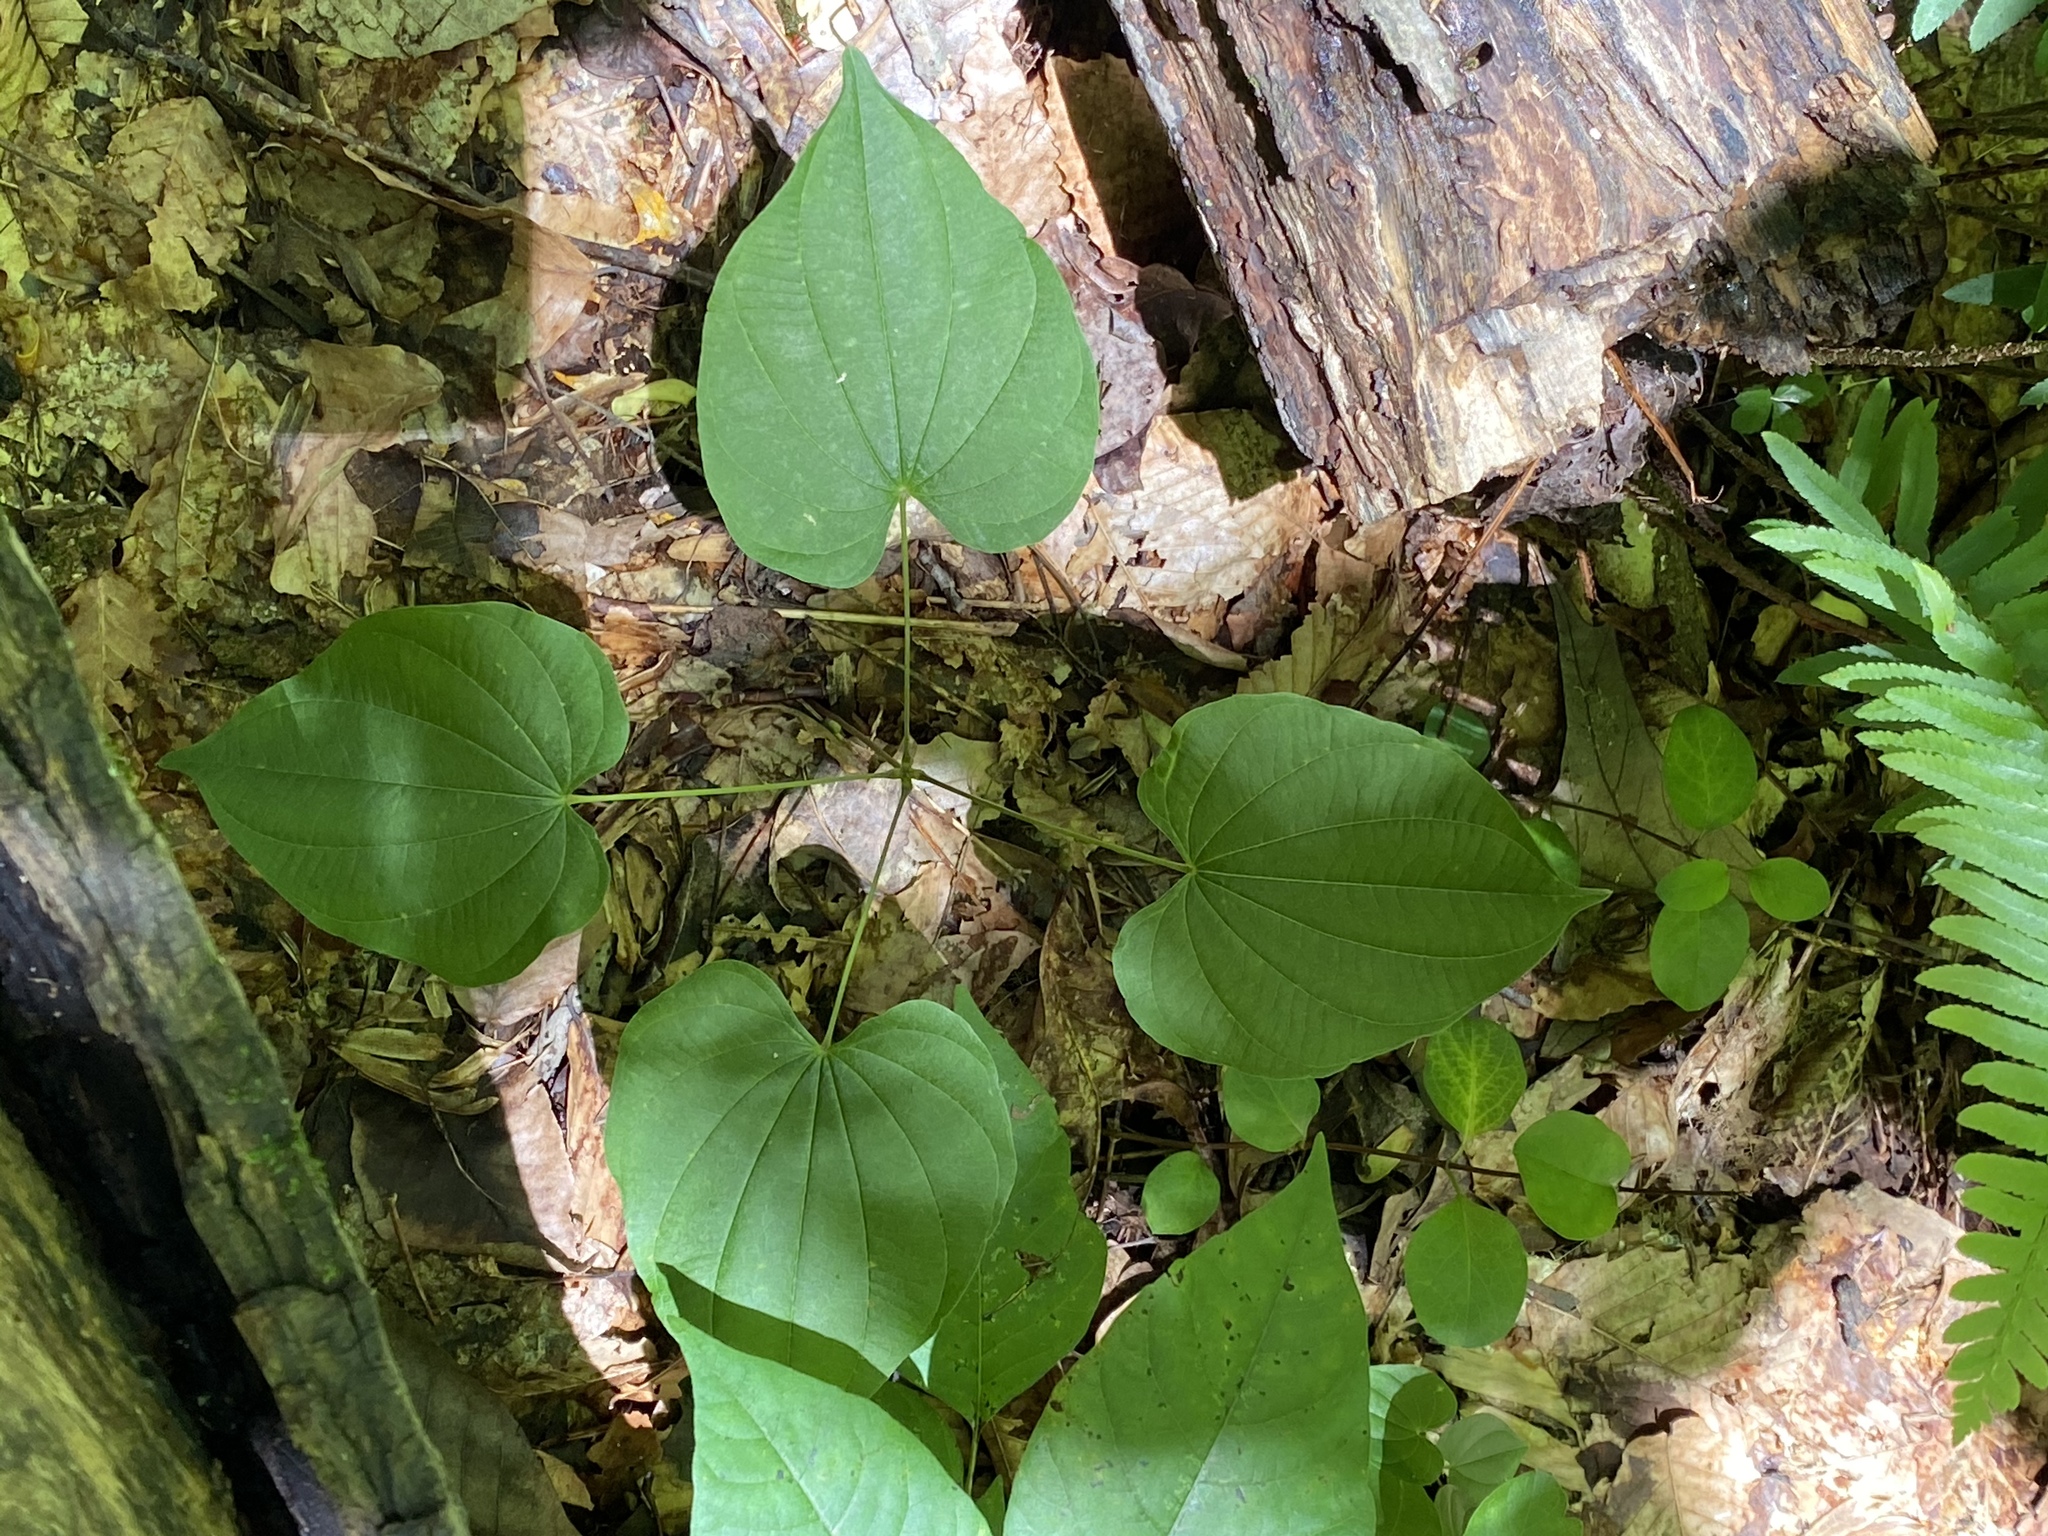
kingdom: Plantae
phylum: Tracheophyta
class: Liliopsida
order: Dioscoreales
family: Dioscoreaceae
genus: Dioscorea
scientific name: Dioscorea villosa
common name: Wild yam
